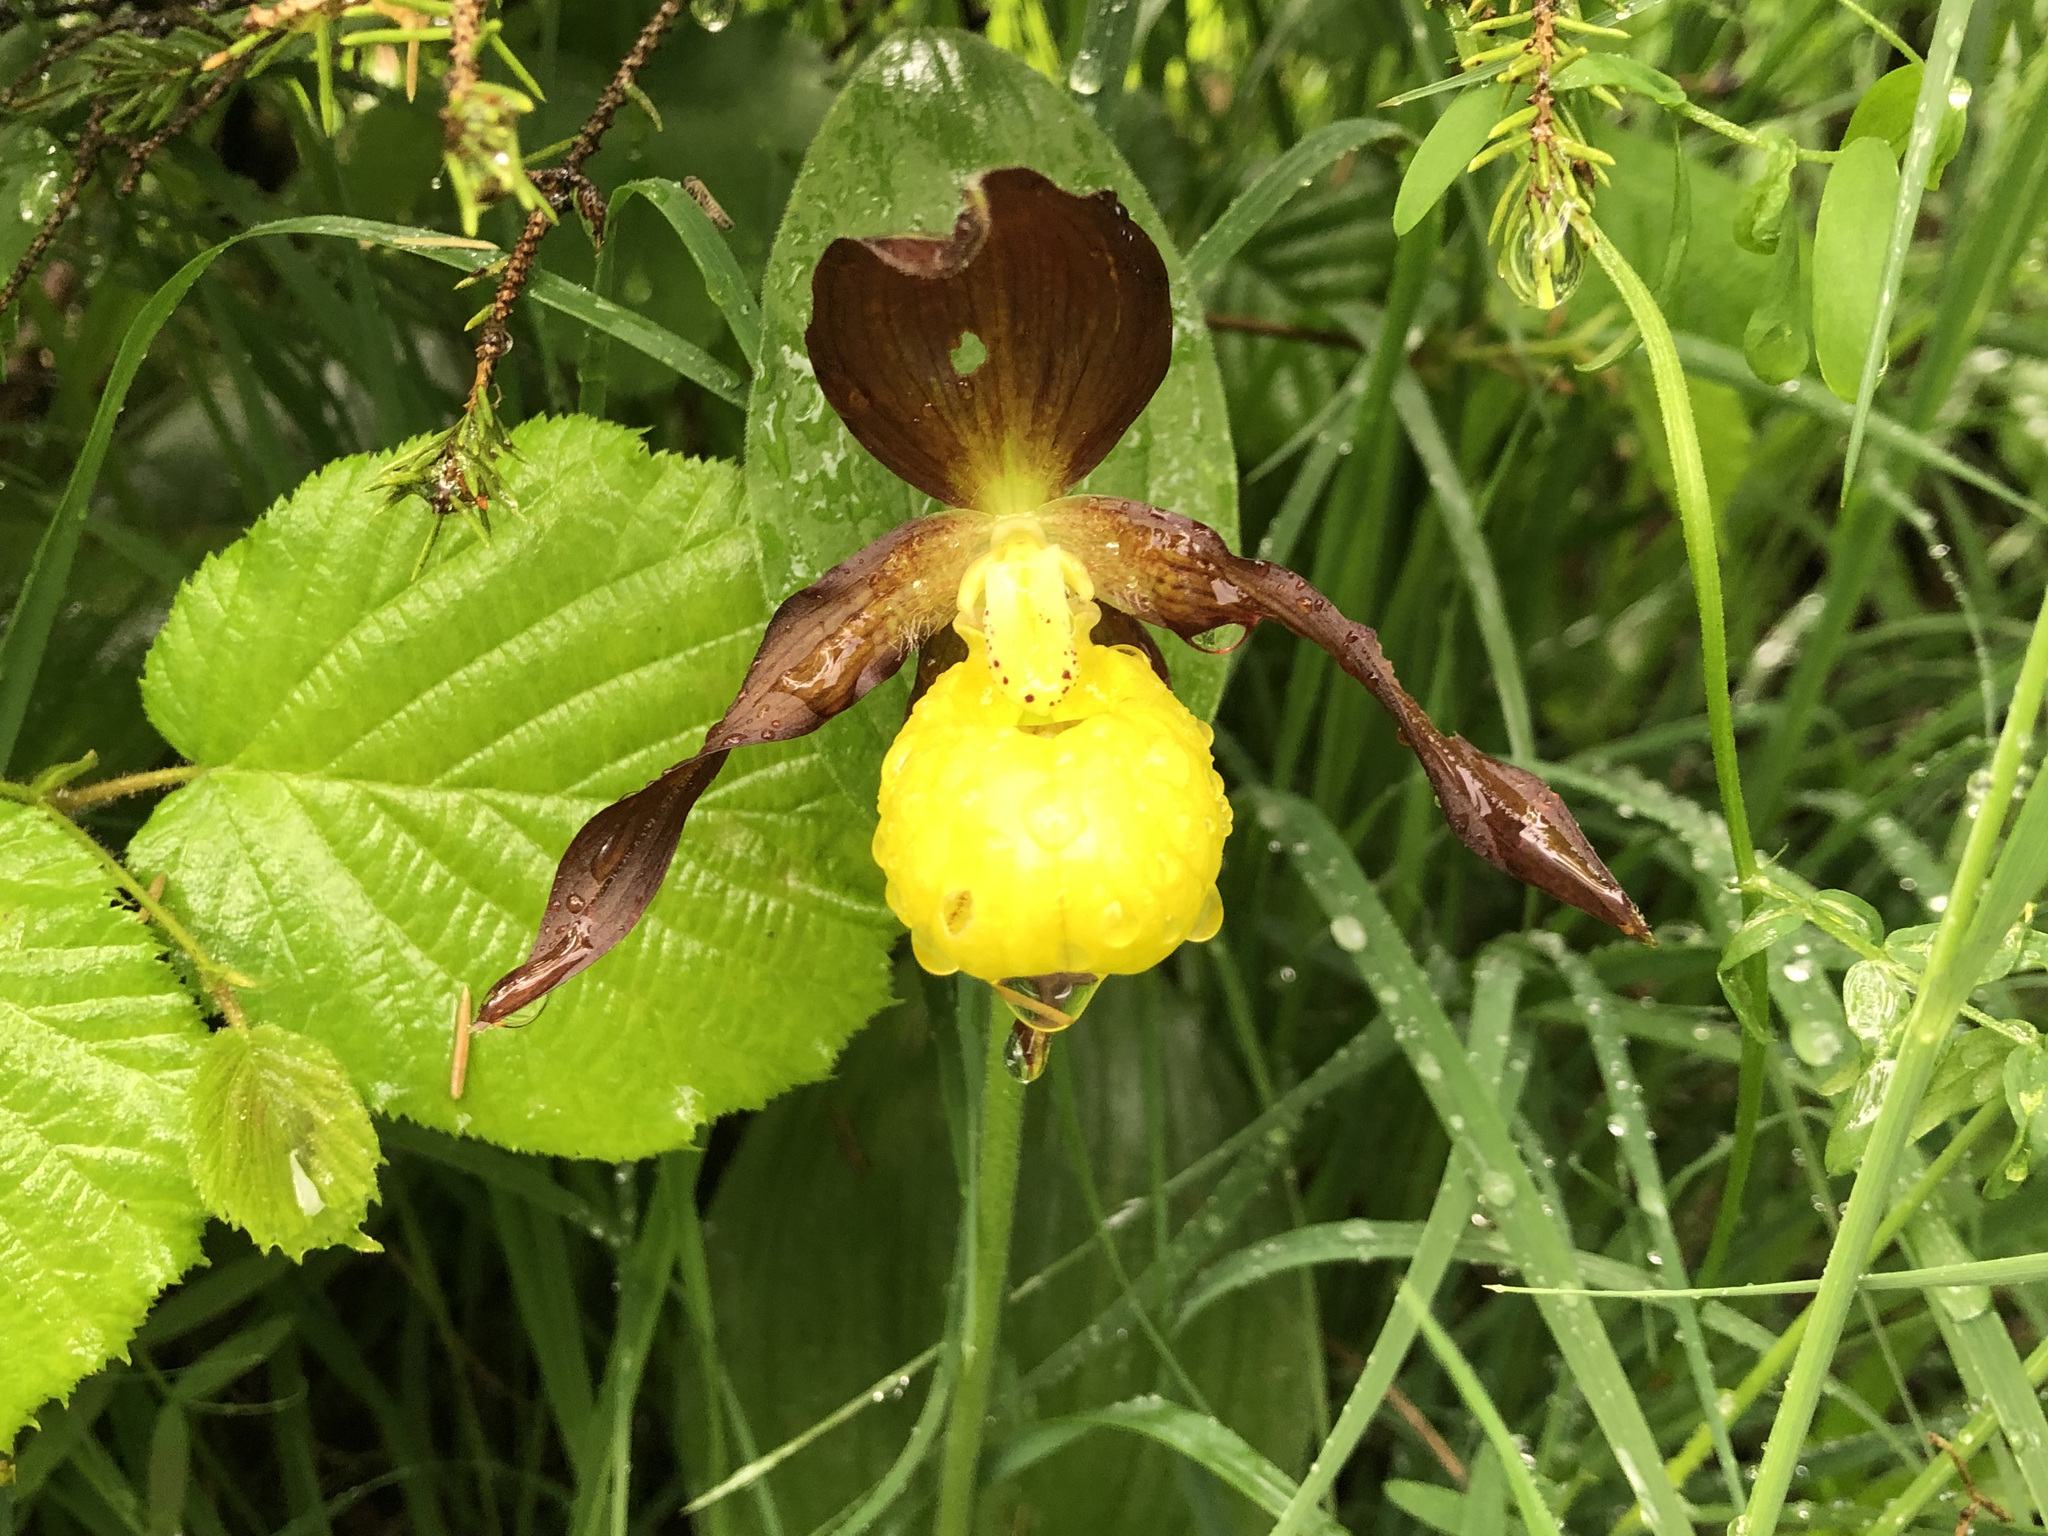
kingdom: Plantae
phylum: Tracheophyta
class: Liliopsida
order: Asparagales
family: Orchidaceae
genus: Cypripedium
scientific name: Cypripedium calceolus
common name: Lady's-slipper
